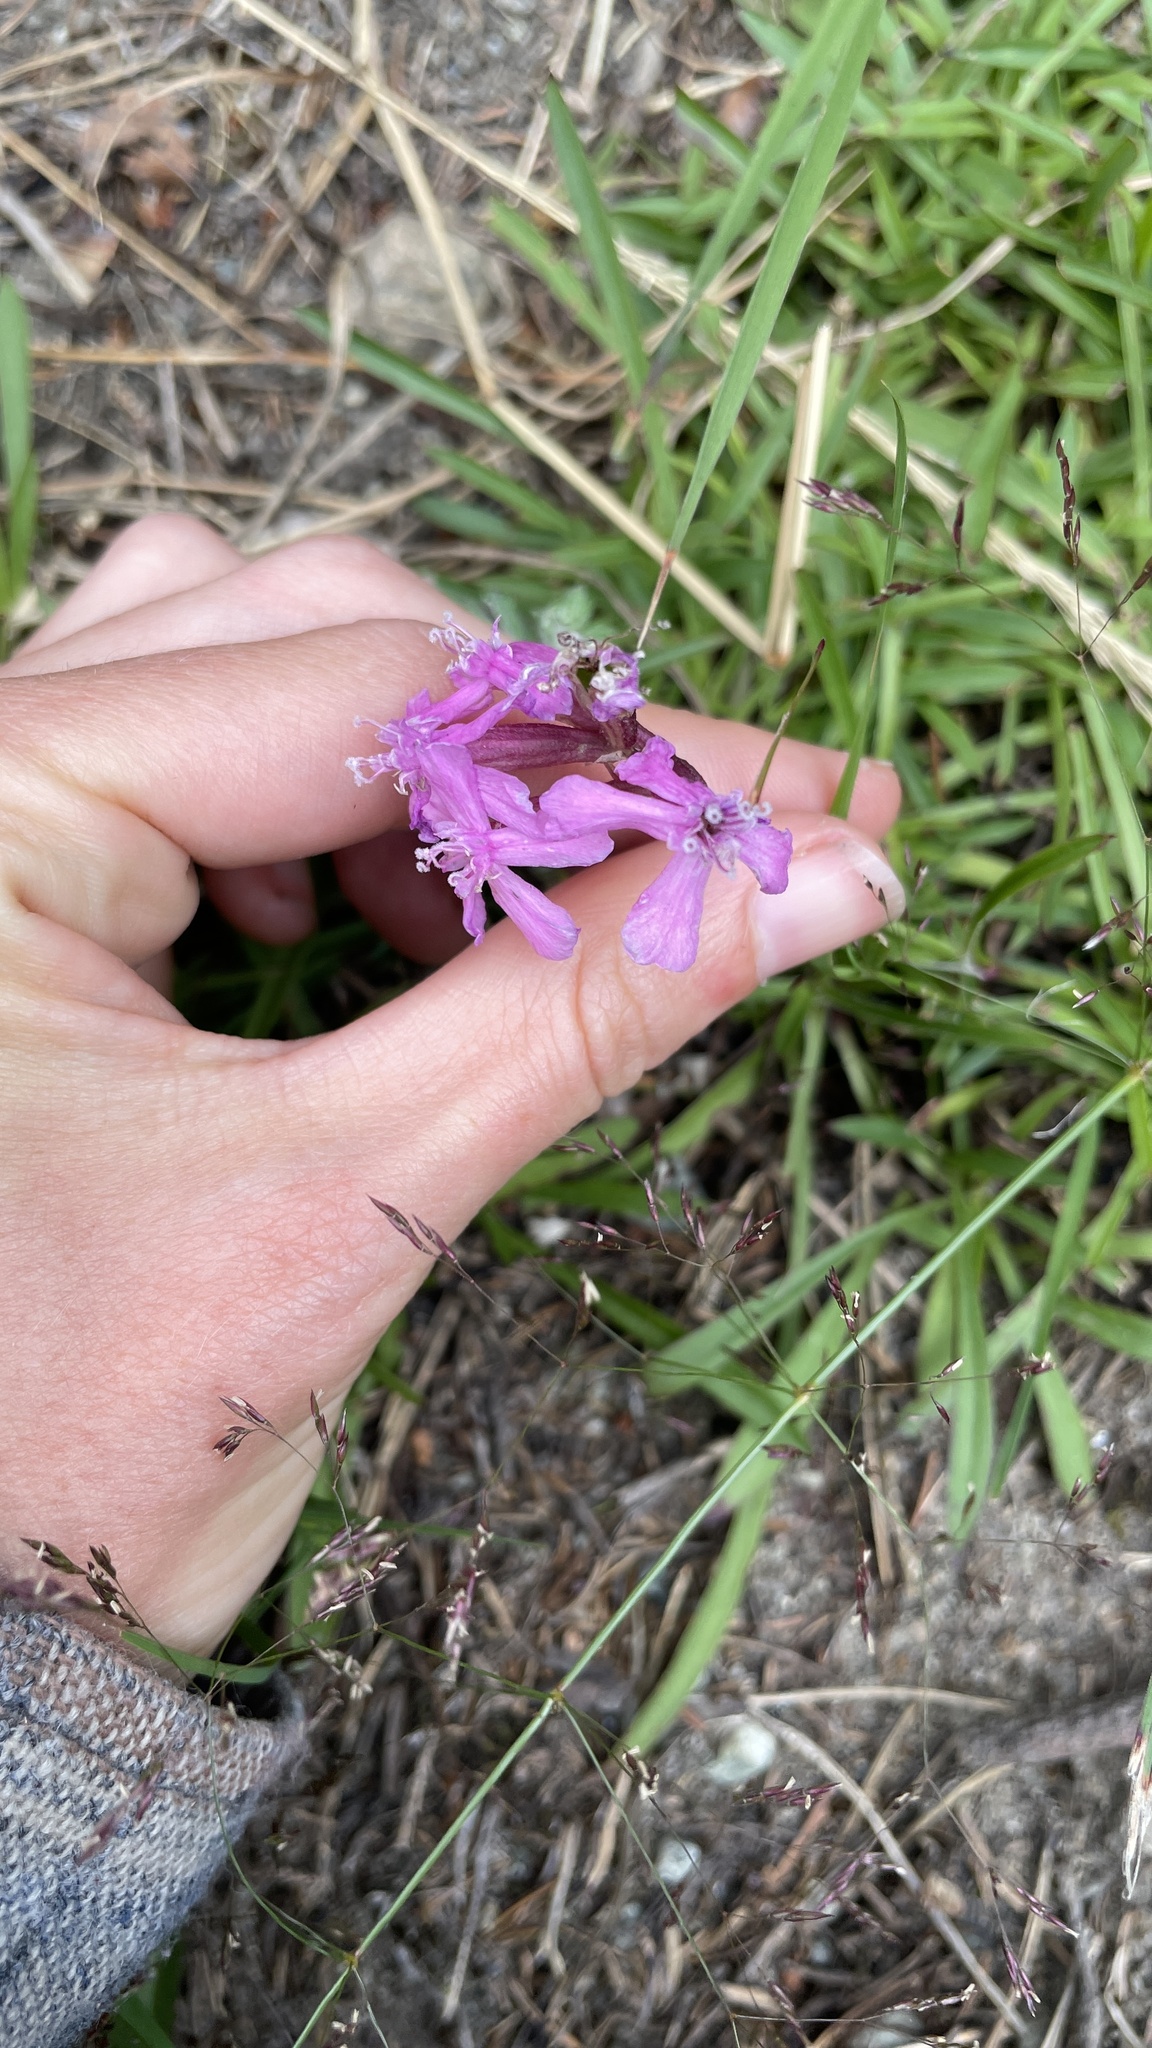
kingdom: Plantae
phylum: Tracheophyta
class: Magnoliopsida
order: Caryophyllales
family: Caryophyllaceae
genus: Viscaria
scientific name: Viscaria vulgaris
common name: Clammy campion
